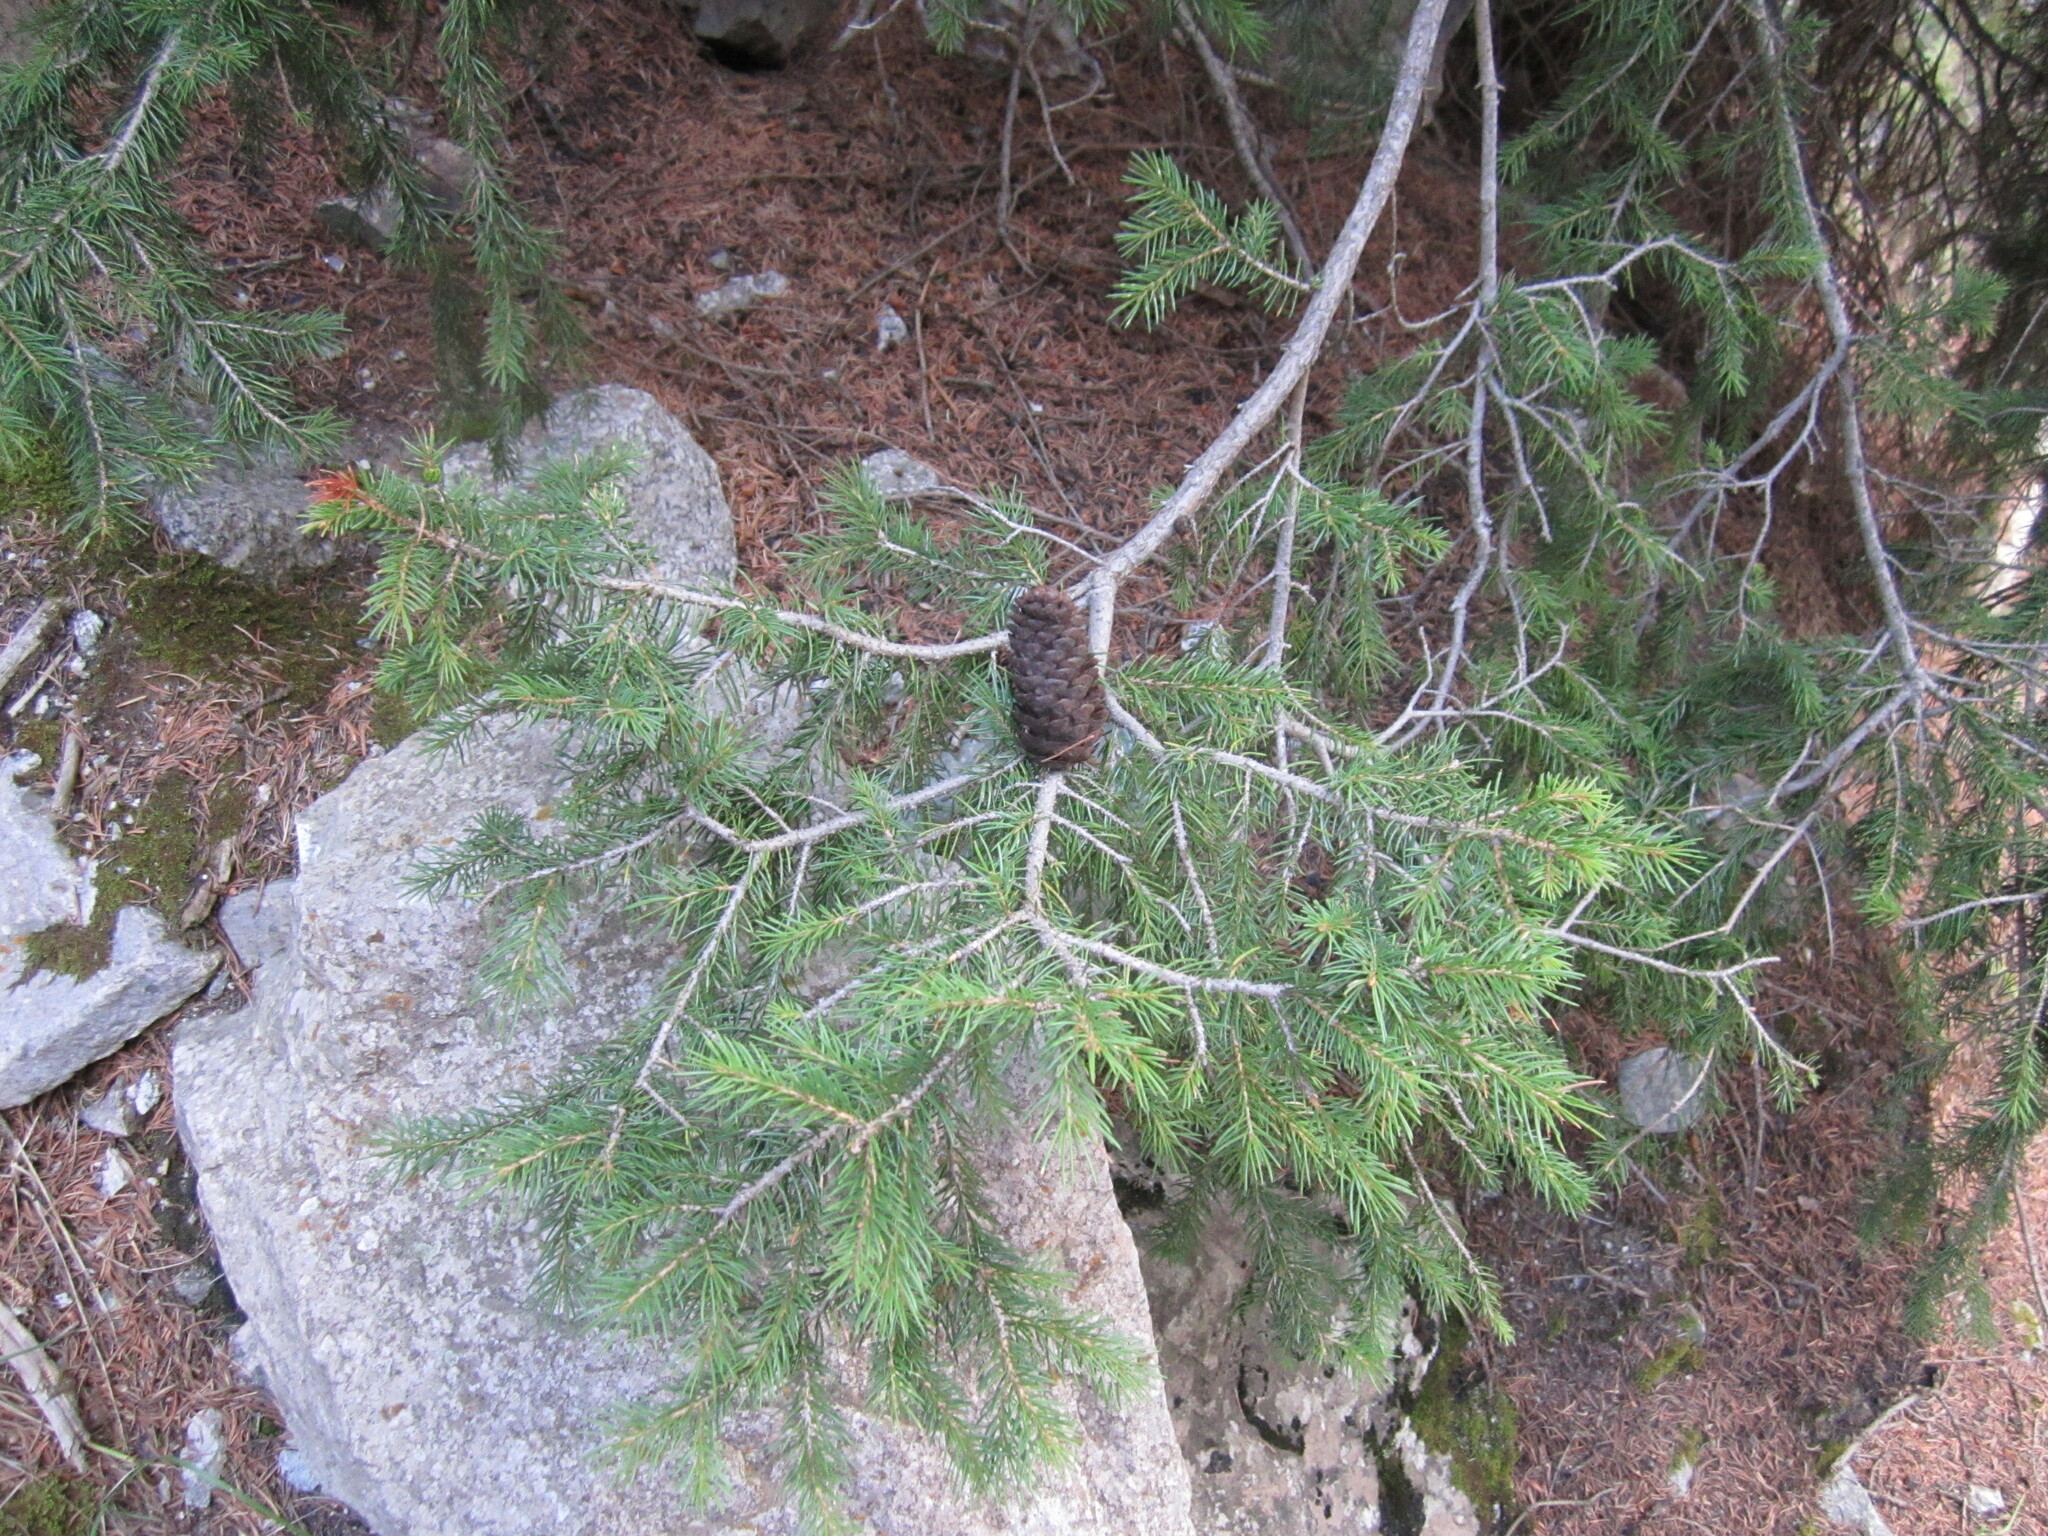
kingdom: Plantae
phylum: Tracheophyta
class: Pinopsida
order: Pinales
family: Pinaceae
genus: Picea
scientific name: Picea schrenkiana
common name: Asian spruce
